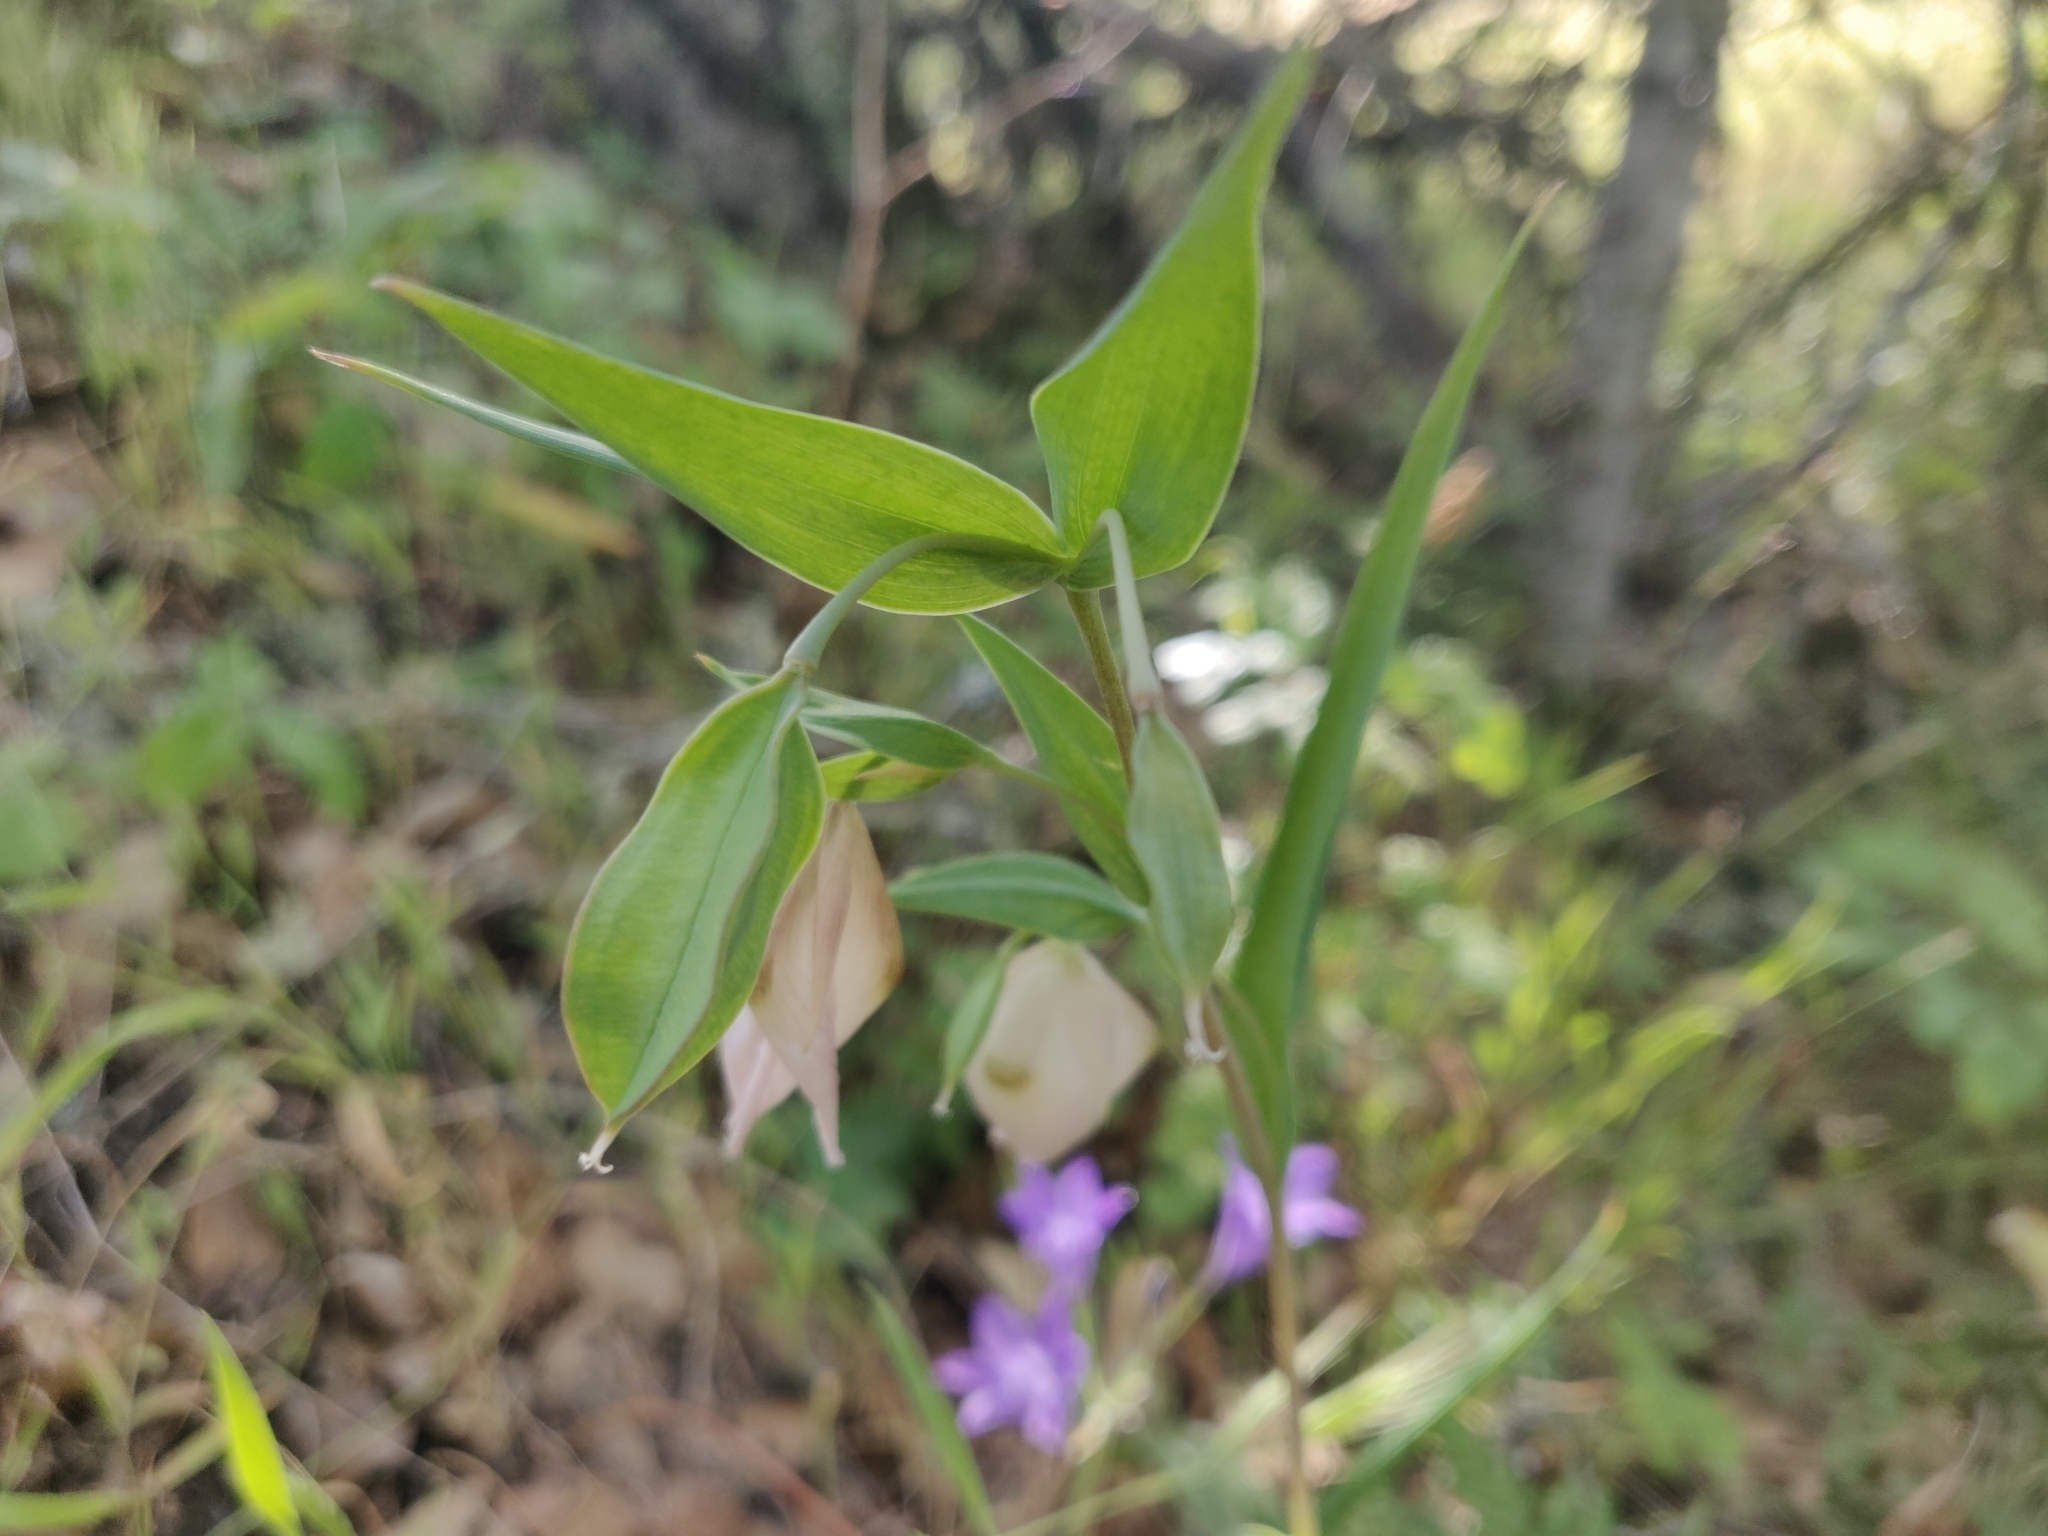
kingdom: Plantae
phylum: Tracheophyta
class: Liliopsida
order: Liliales
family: Liliaceae
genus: Calochortus
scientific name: Calochortus albus
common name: Fairy-lantern
